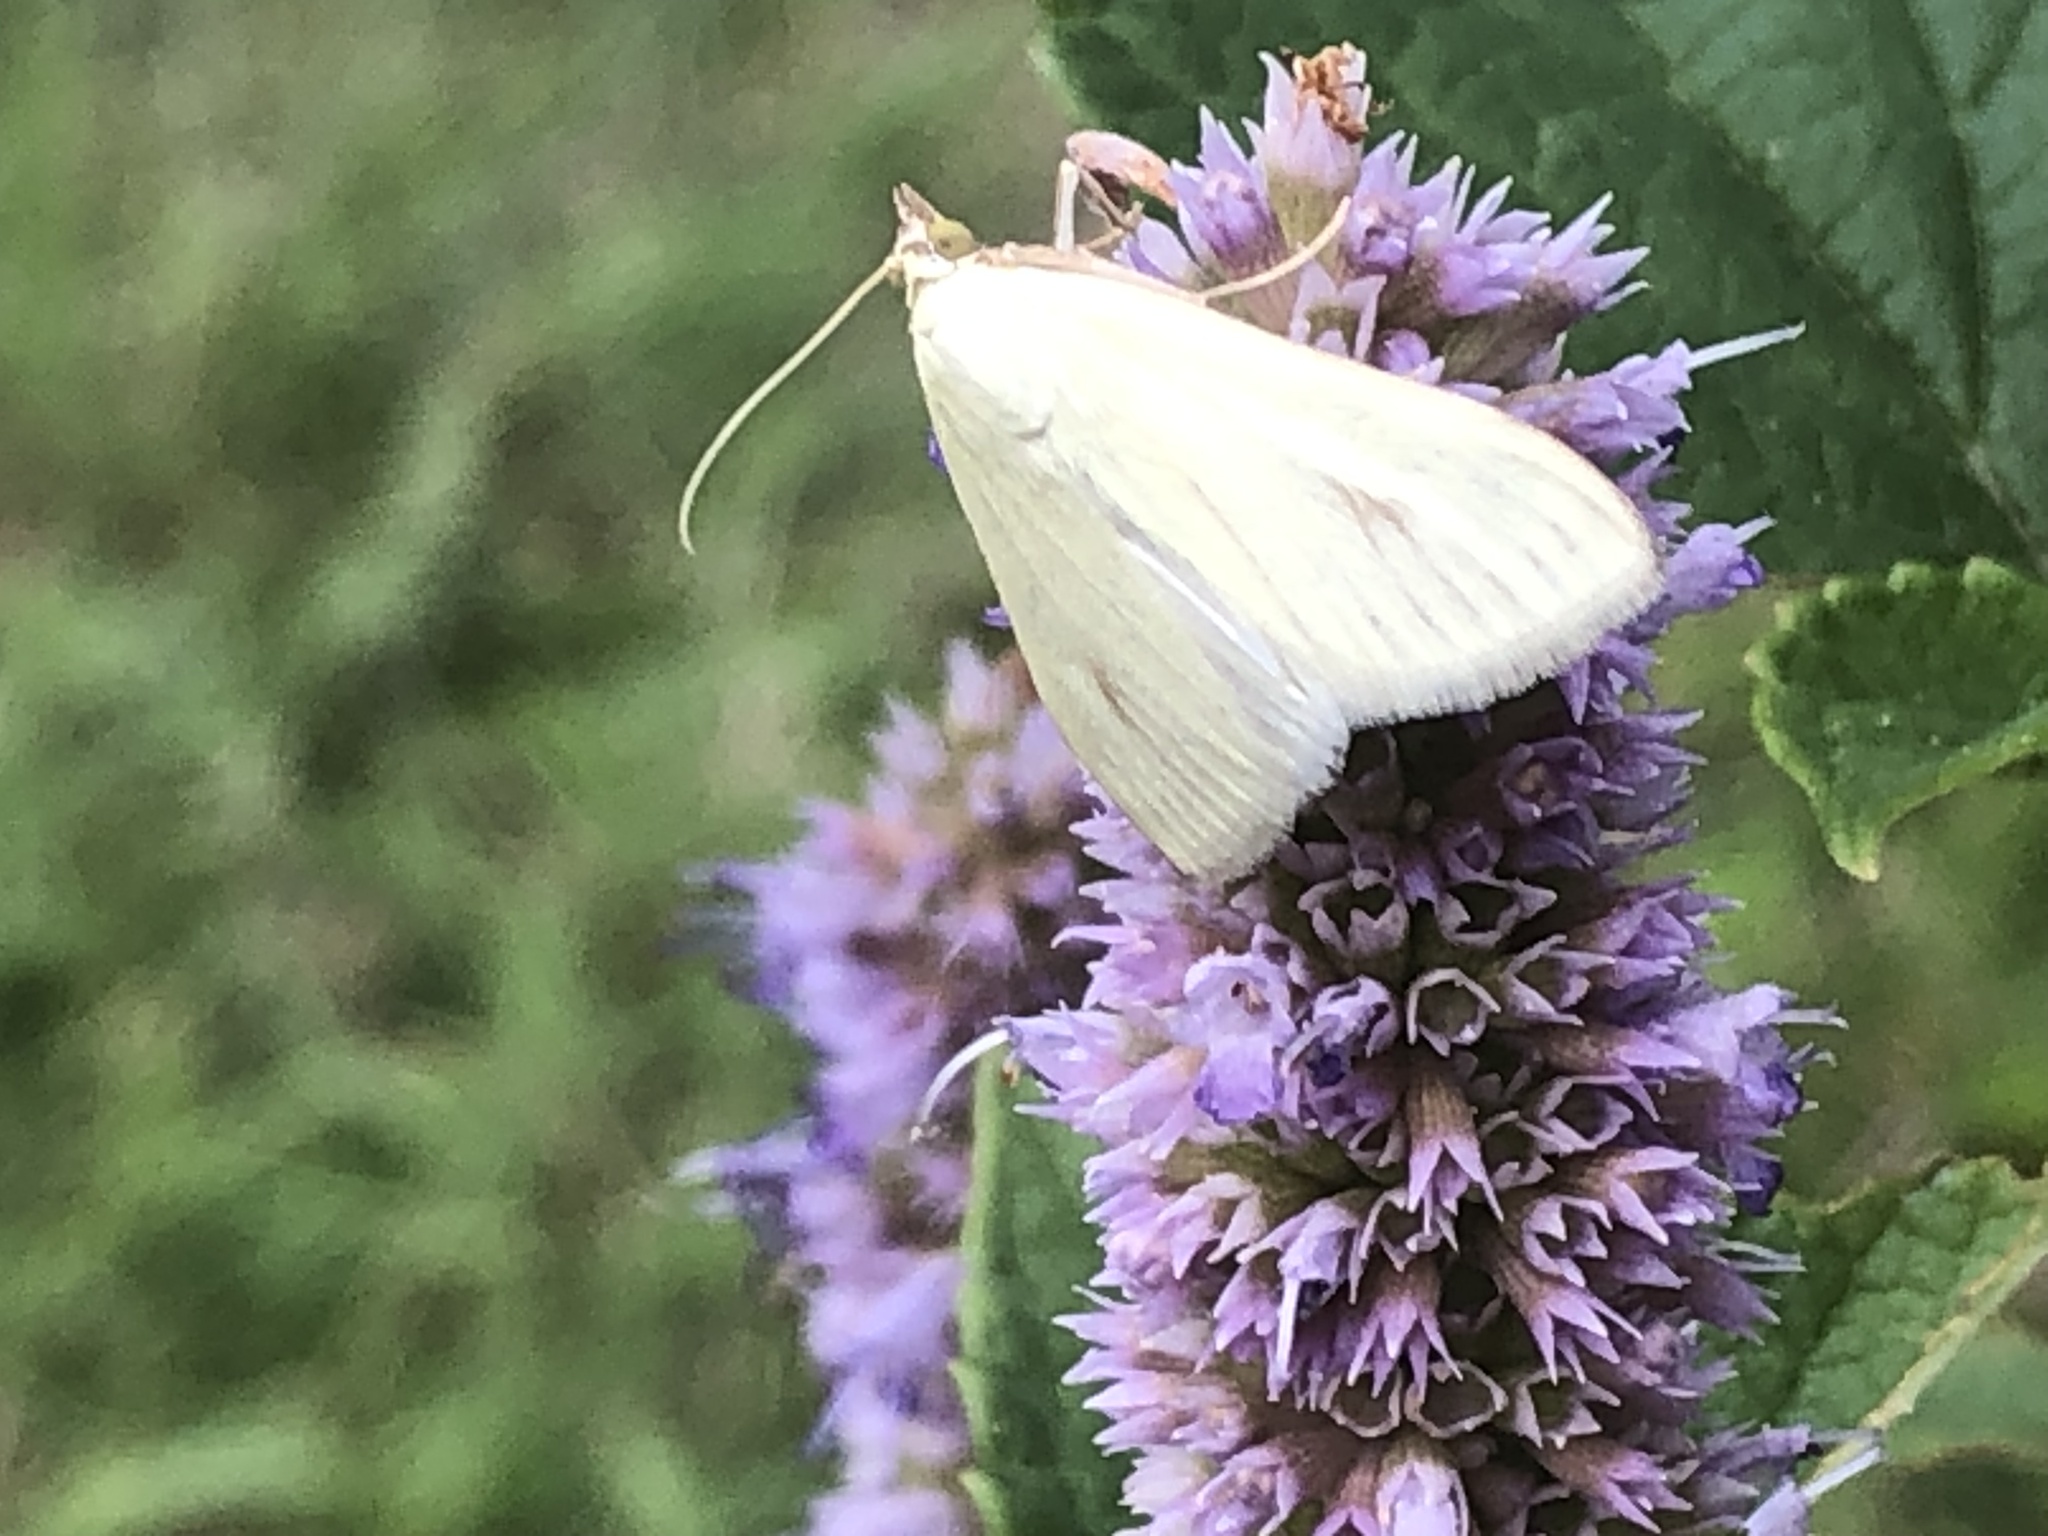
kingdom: Animalia
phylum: Arthropoda
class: Insecta
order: Lepidoptera
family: Crambidae
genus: Sitochroa
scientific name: Sitochroa palealis
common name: Greenish-yellow sitochroa moth
